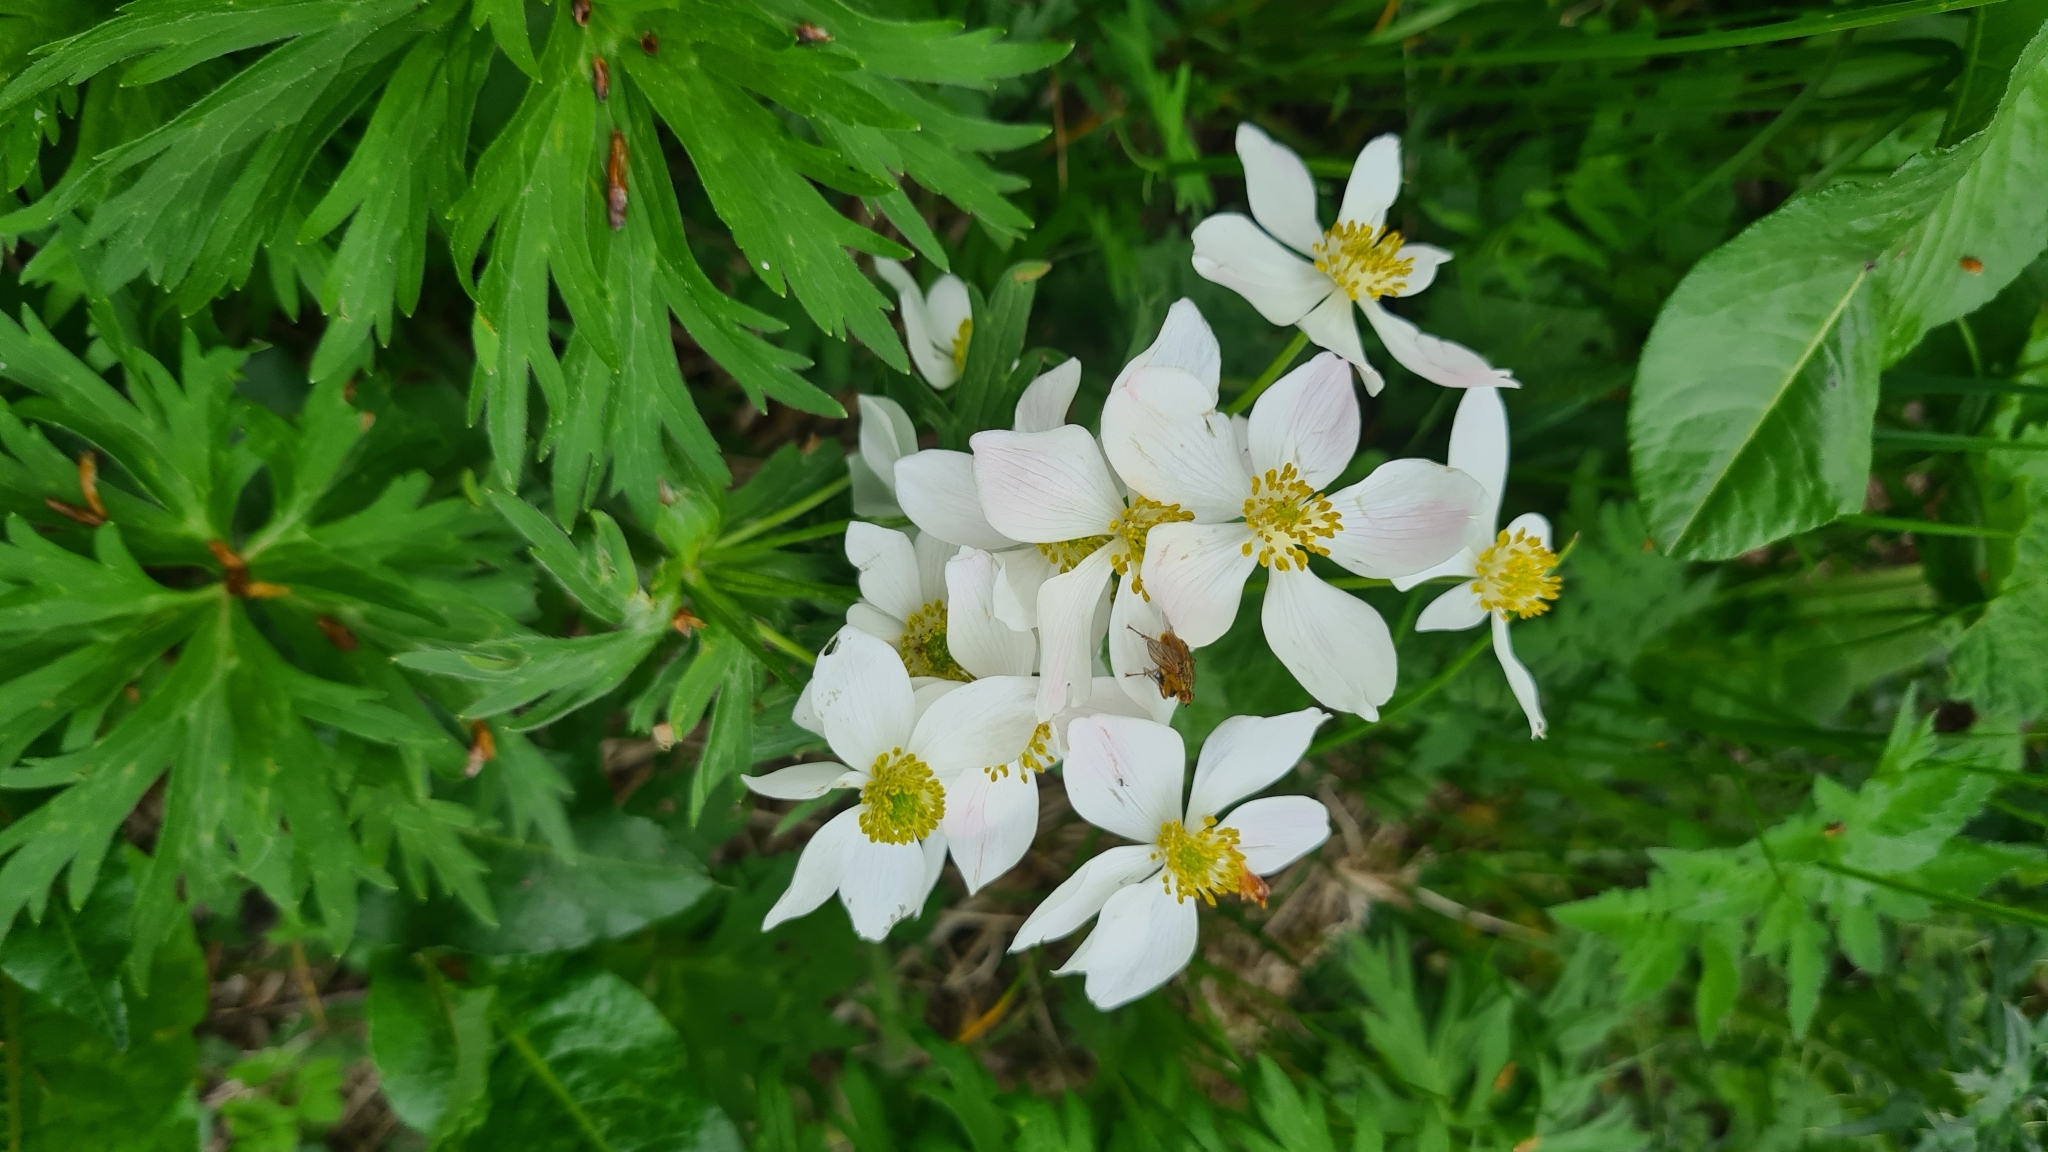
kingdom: Plantae
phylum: Tracheophyta
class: Magnoliopsida
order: Ranunculales
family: Ranunculaceae
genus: Anemonastrum
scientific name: Anemonastrum narcissiflorum
